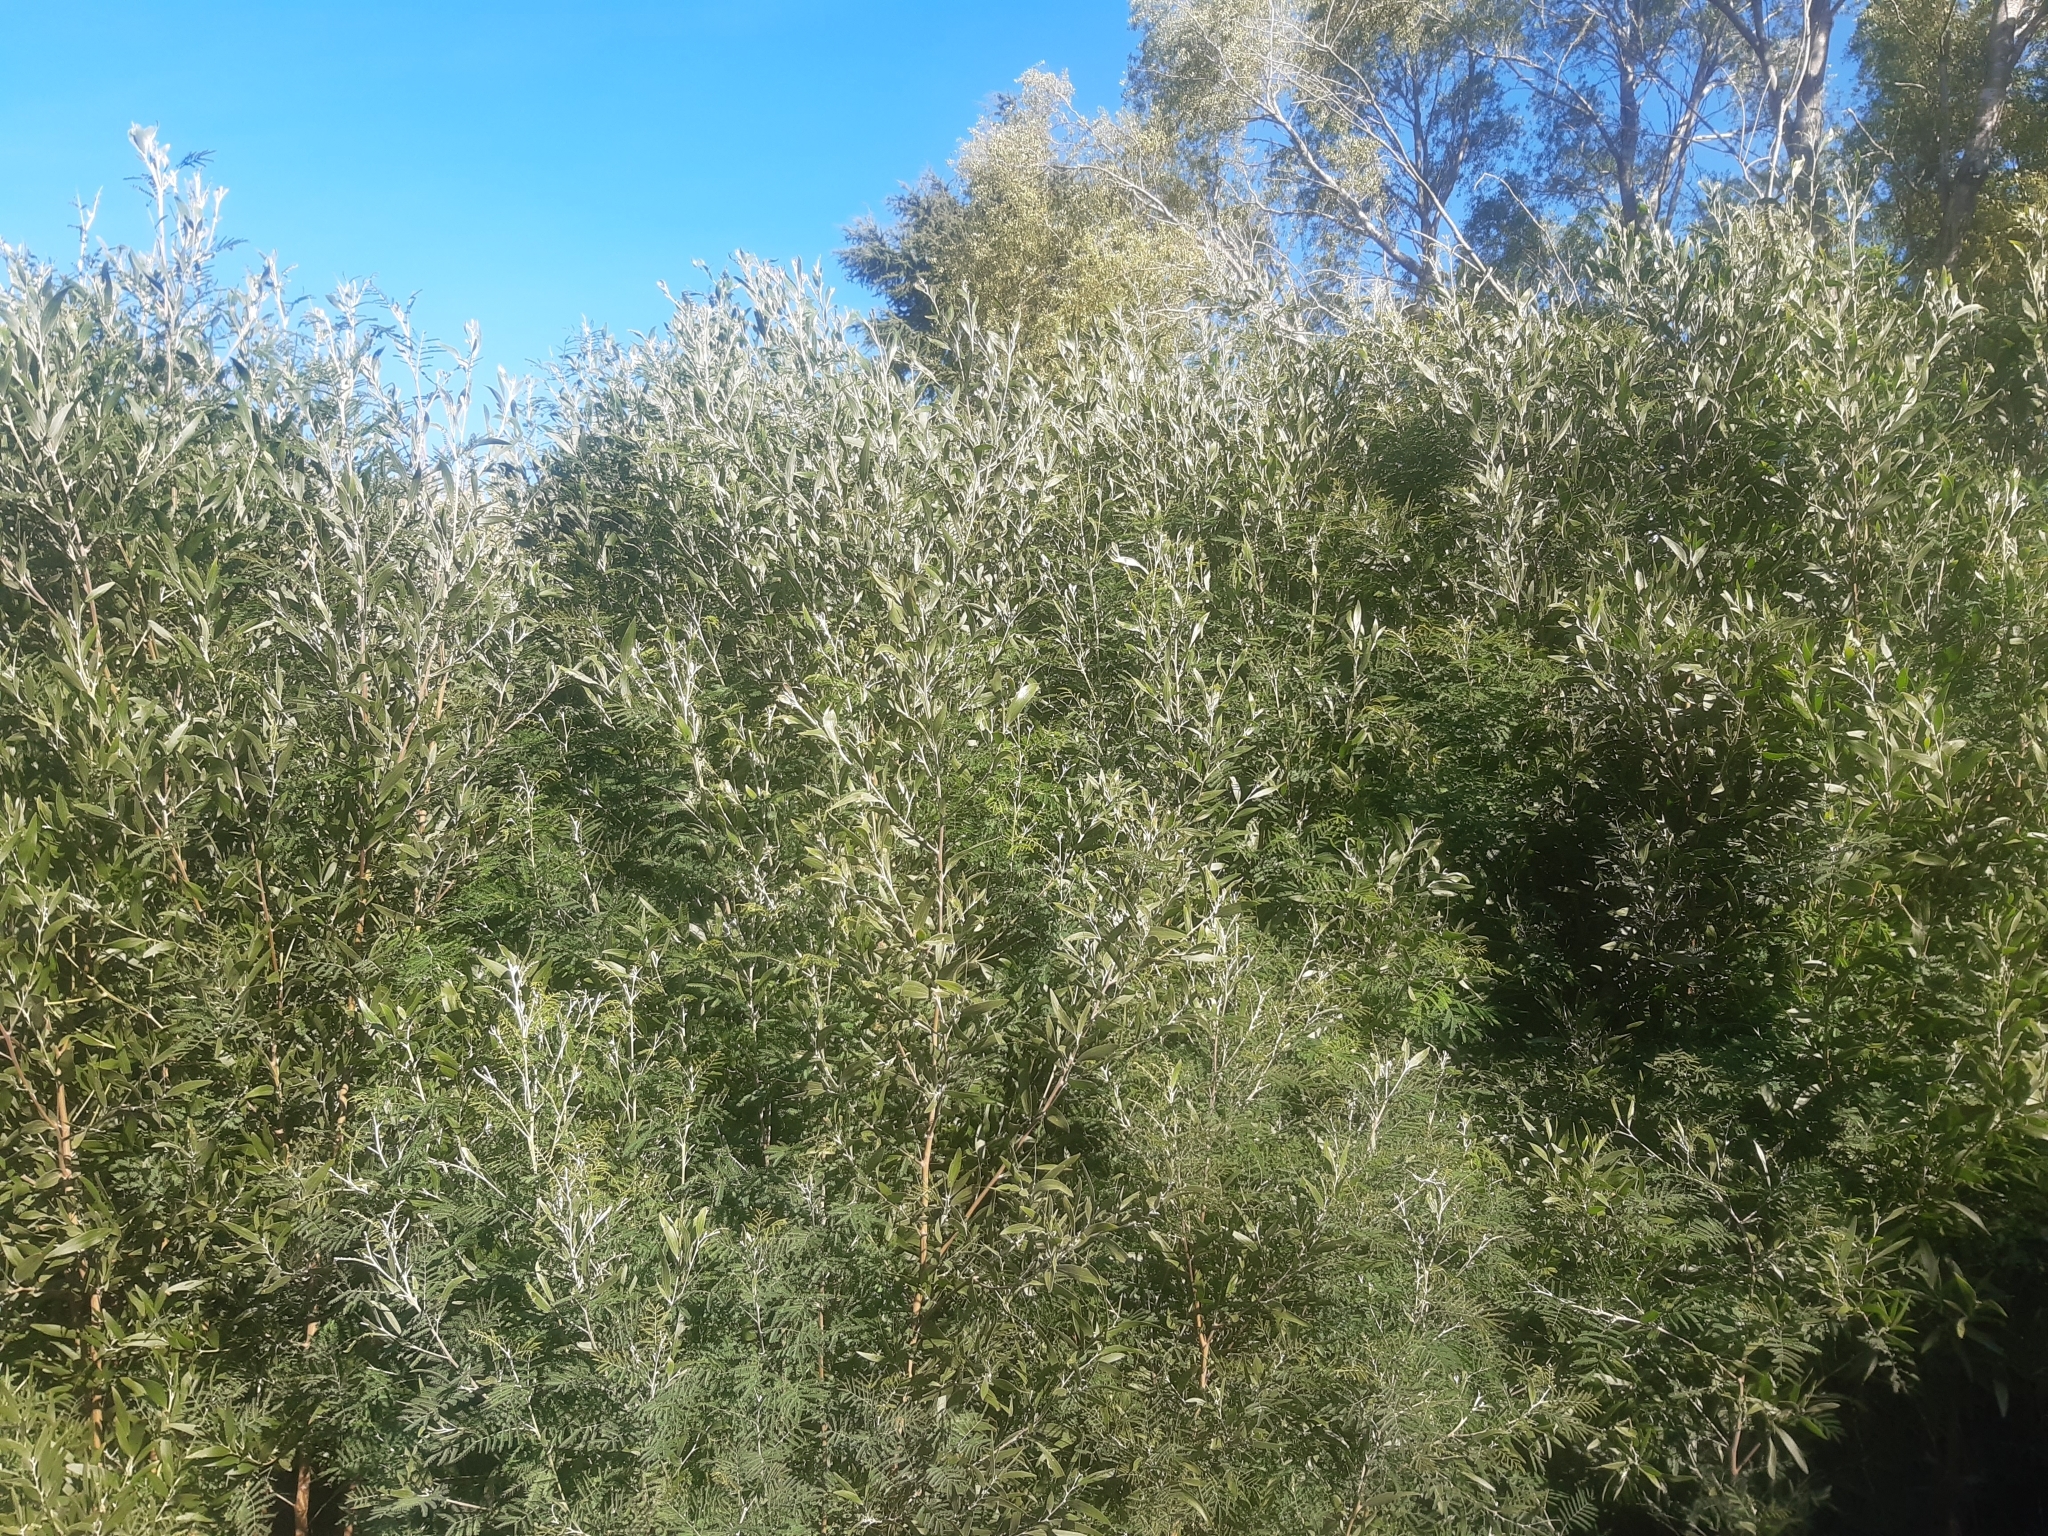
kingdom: Plantae
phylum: Tracheophyta
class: Magnoliopsida
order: Fabales
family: Fabaceae
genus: Acacia
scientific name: Acacia melanoxylon
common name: Blackwood
